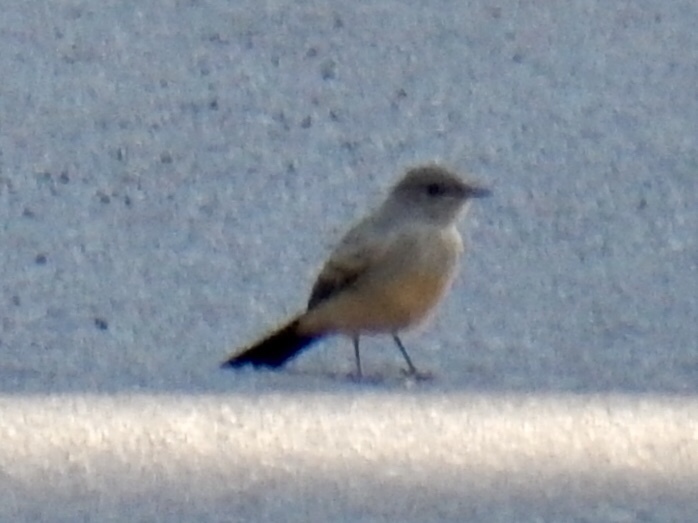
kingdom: Animalia
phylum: Chordata
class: Aves
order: Passeriformes
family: Tyrannidae
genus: Sayornis
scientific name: Sayornis saya
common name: Say's phoebe
